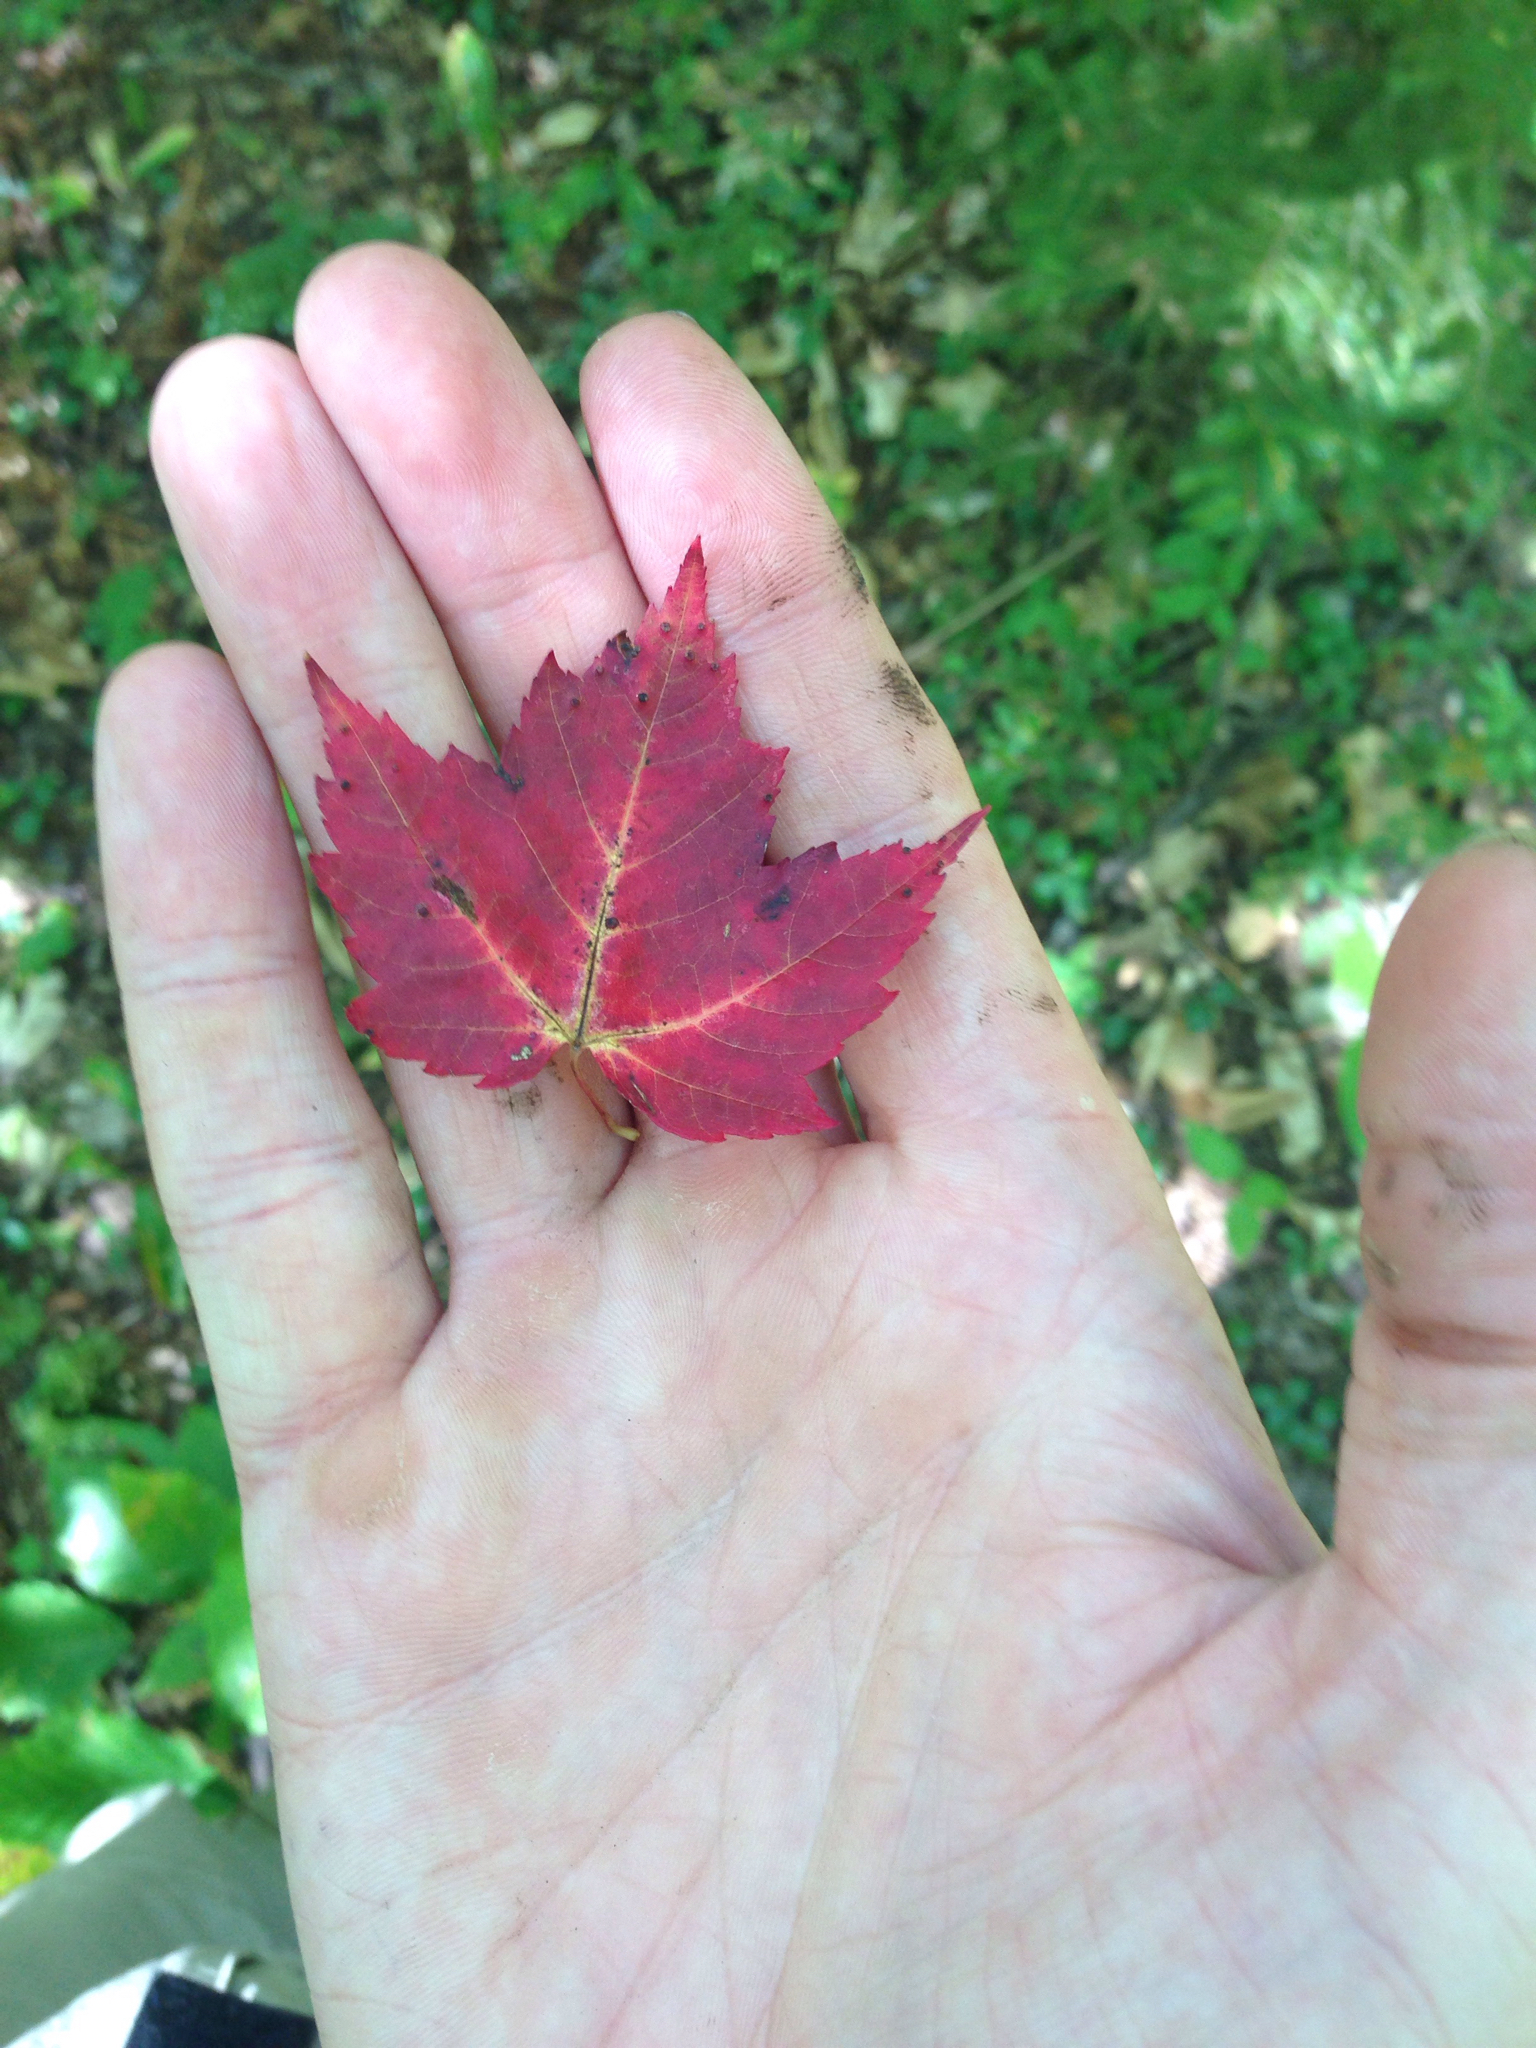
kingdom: Plantae
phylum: Tracheophyta
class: Magnoliopsida
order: Sapindales
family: Sapindaceae
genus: Acer
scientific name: Acer rubrum
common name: Red maple
